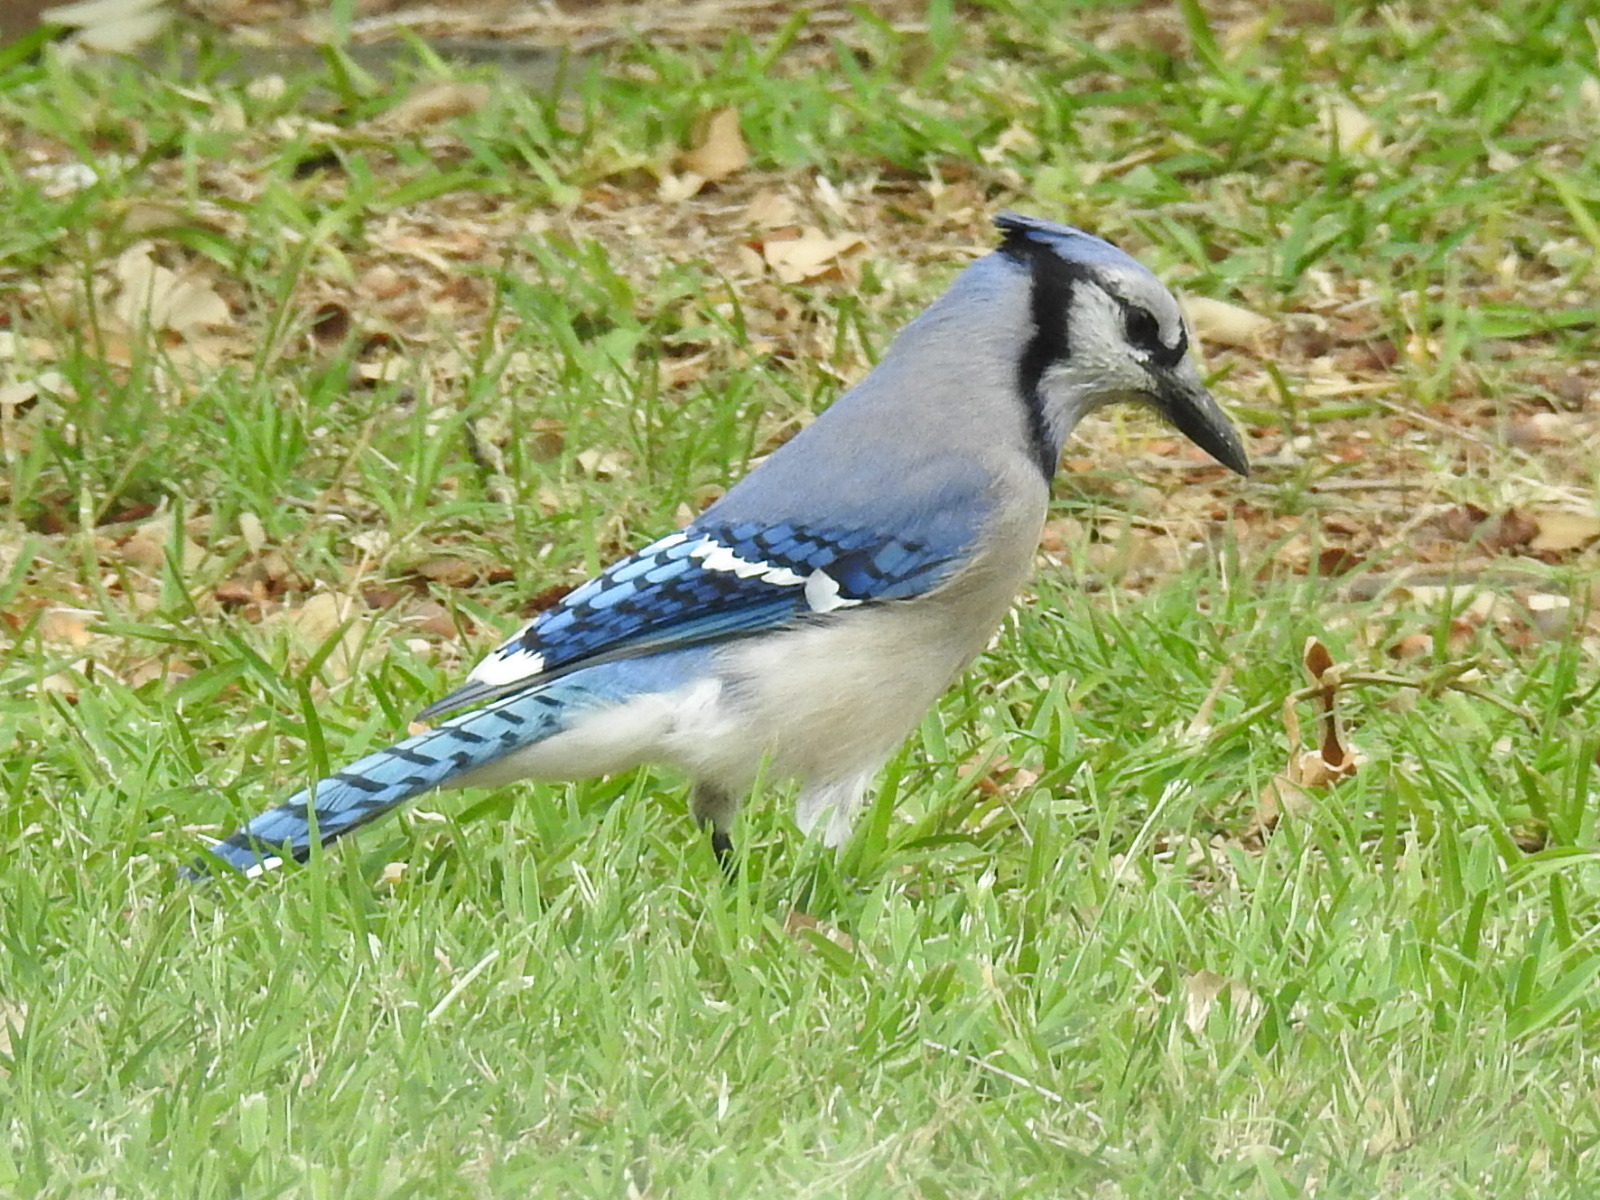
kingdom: Animalia
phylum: Chordata
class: Aves
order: Passeriformes
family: Corvidae
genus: Cyanocitta
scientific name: Cyanocitta cristata
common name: Blue jay
